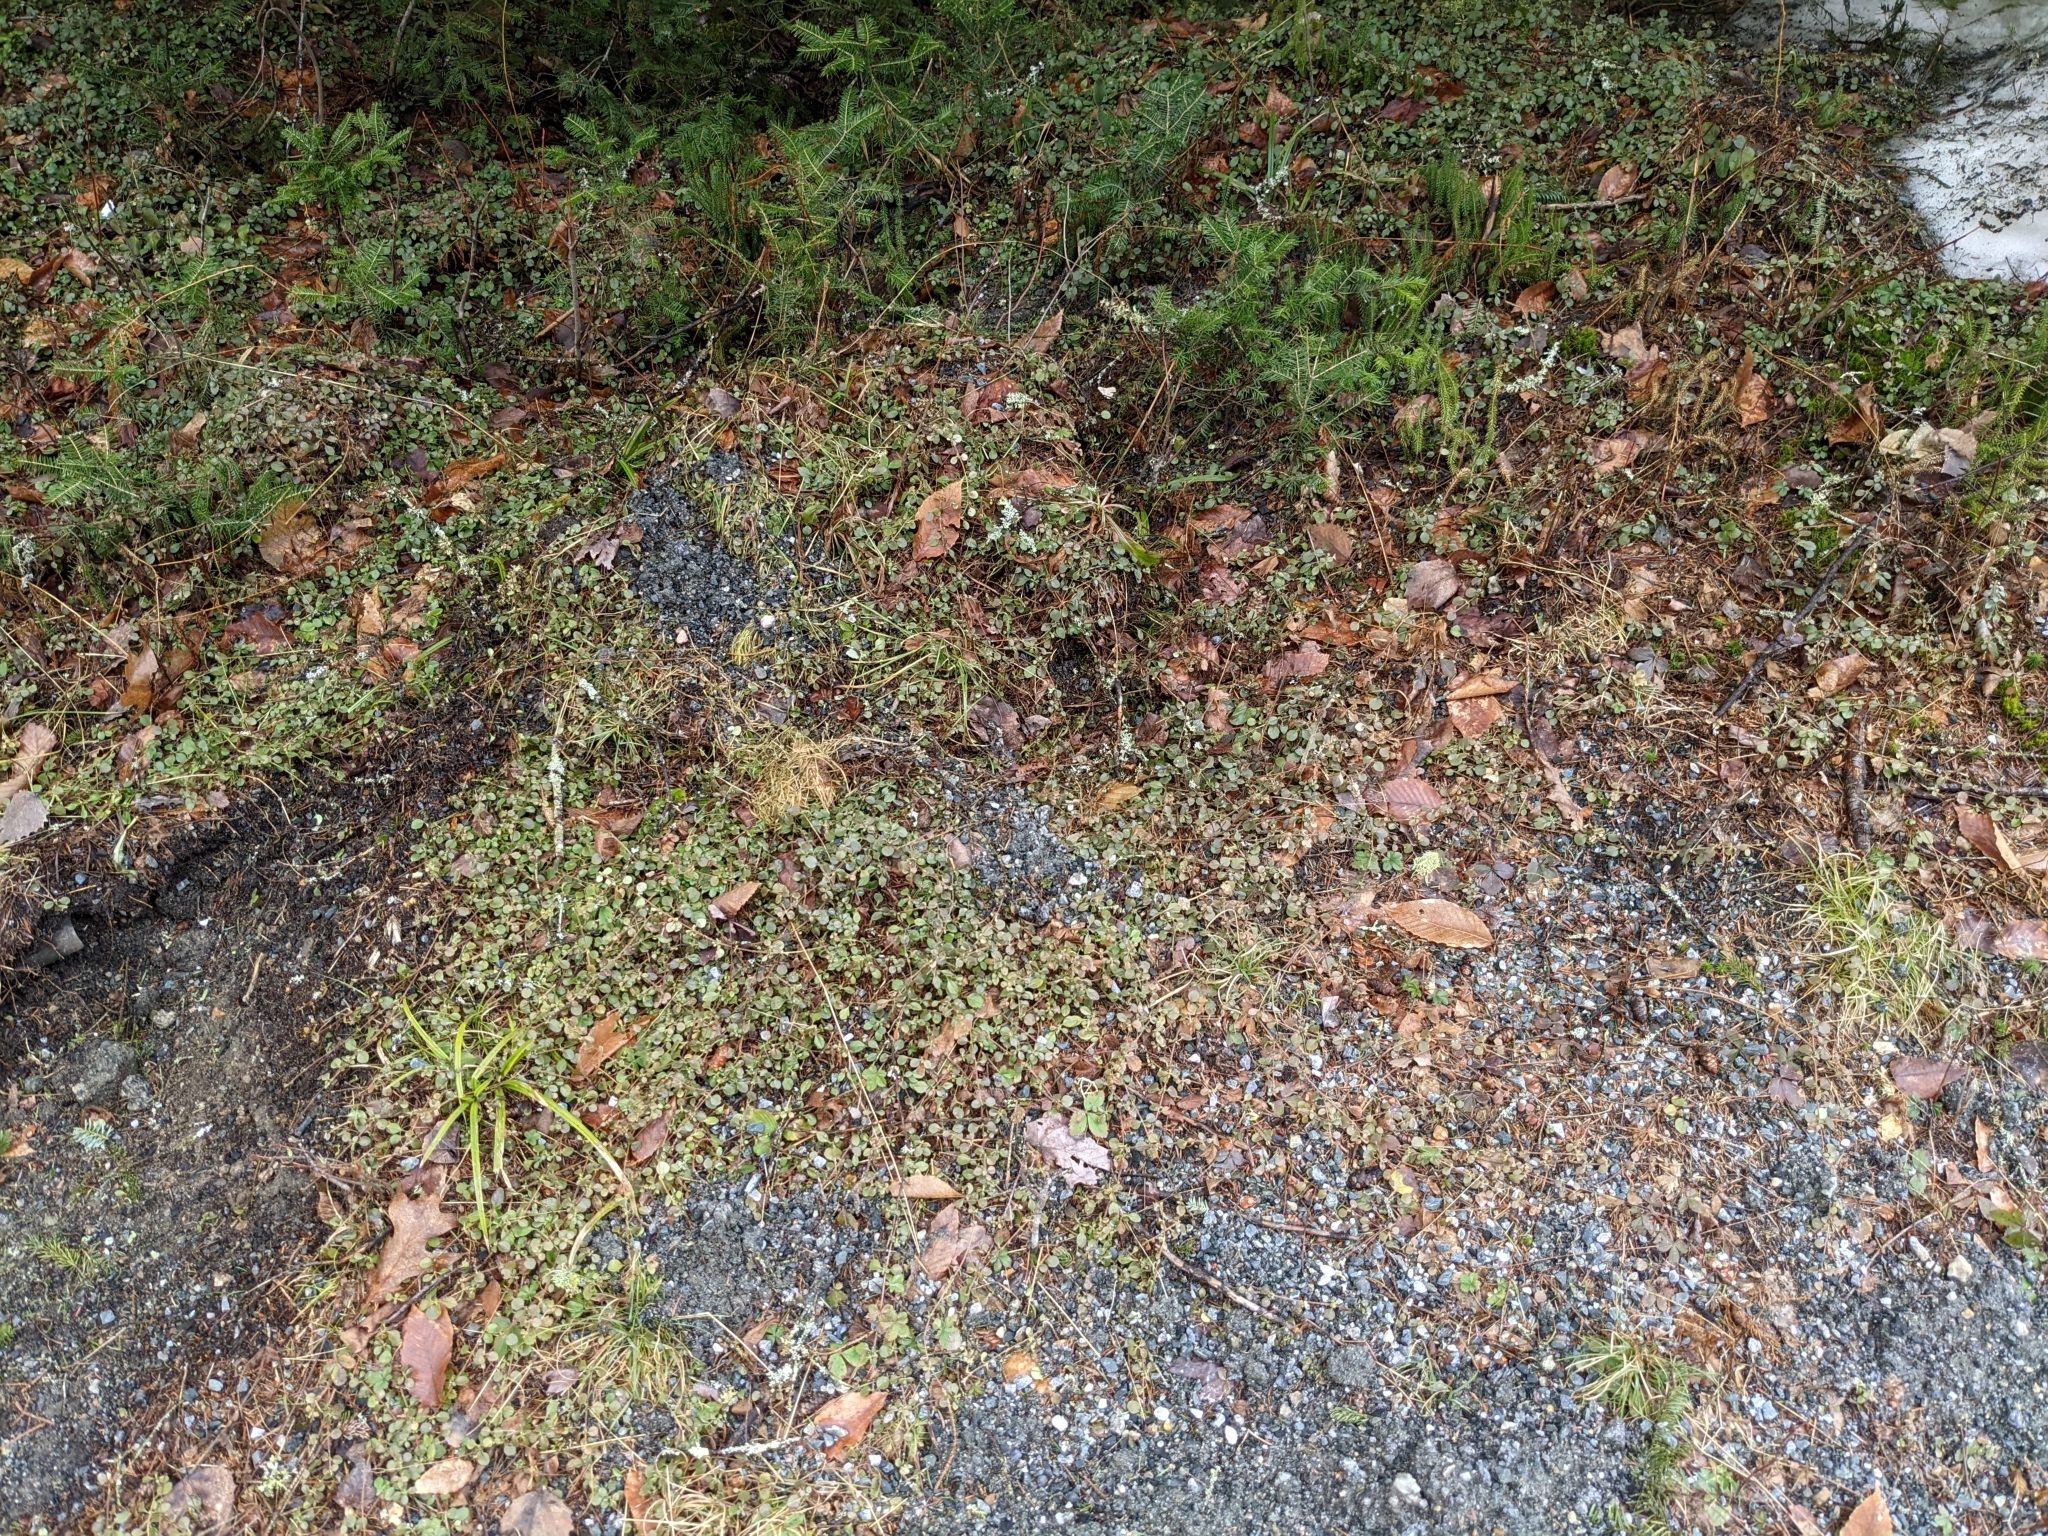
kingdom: Plantae
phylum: Tracheophyta
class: Magnoliopsida
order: Dipsacales
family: Caprifoliaceae
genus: Linnaea
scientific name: Linnaea borealis
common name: Twinflower
